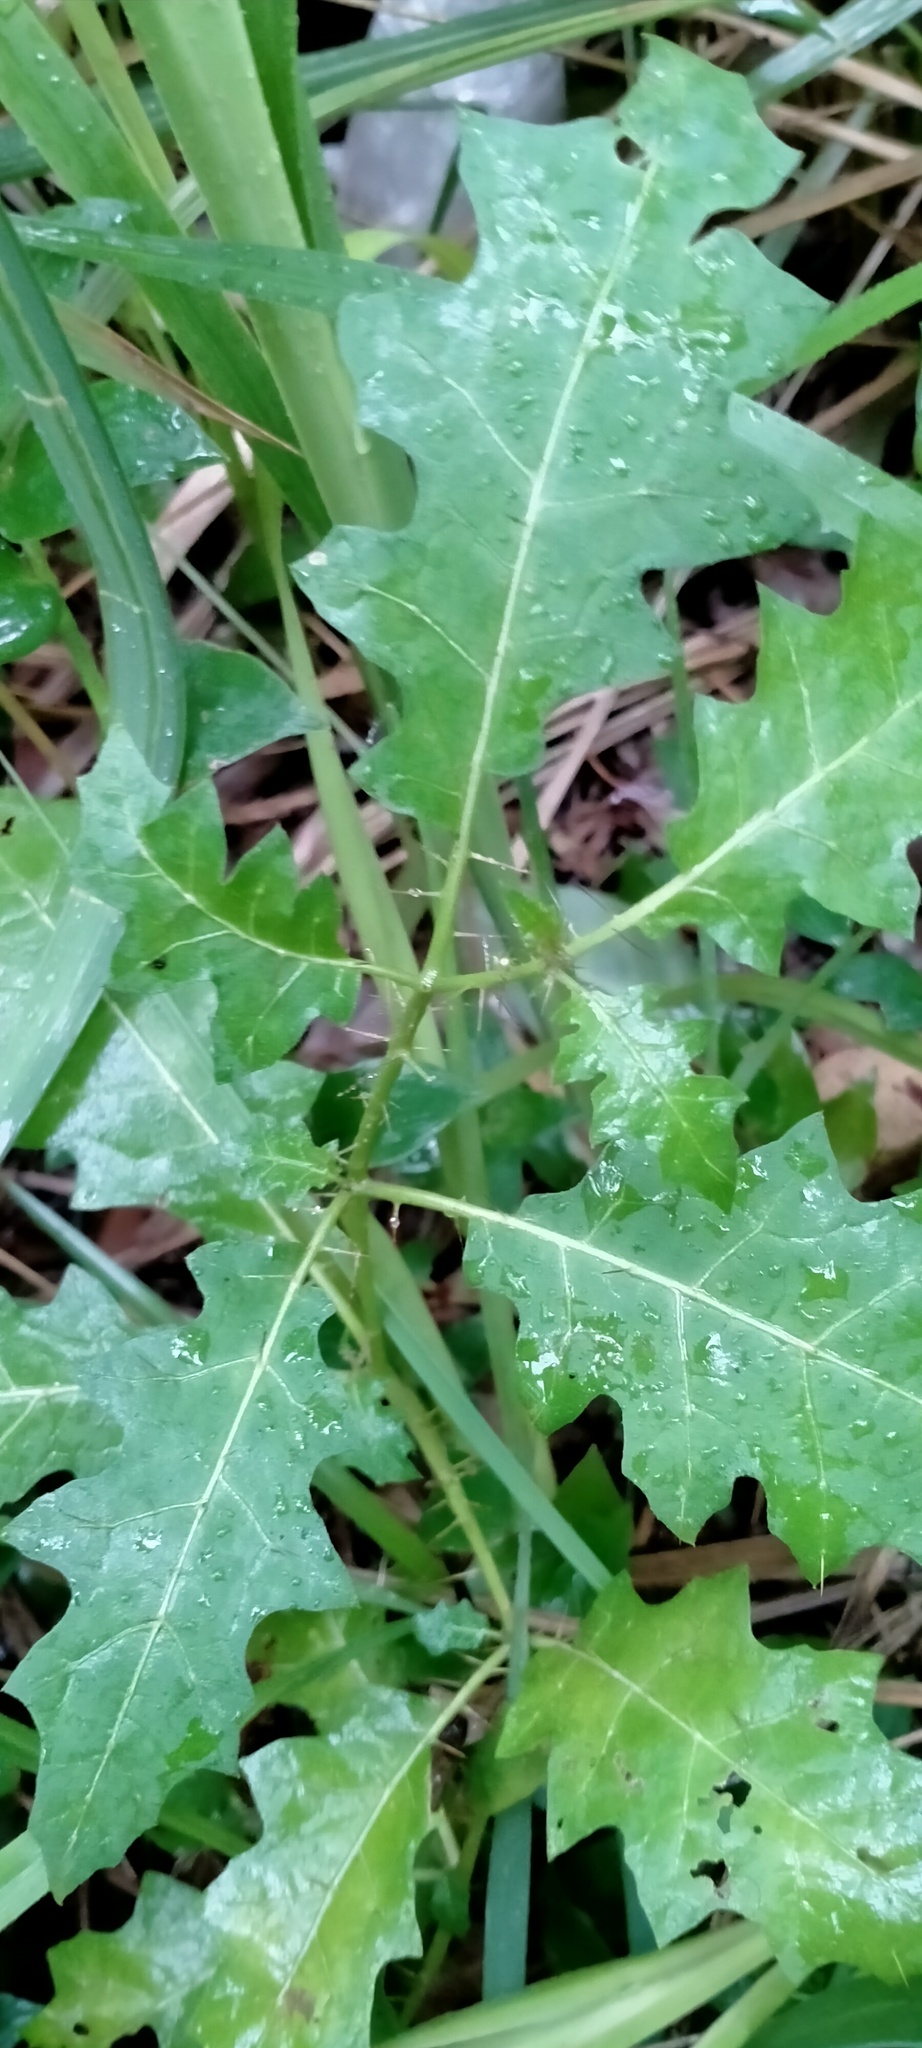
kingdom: Plantae
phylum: Tracheophyta
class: Magnoliopsida
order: Solanales
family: Solanaceae
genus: Solanum
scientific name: Solanum prinophyllum
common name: Forest nightshade
